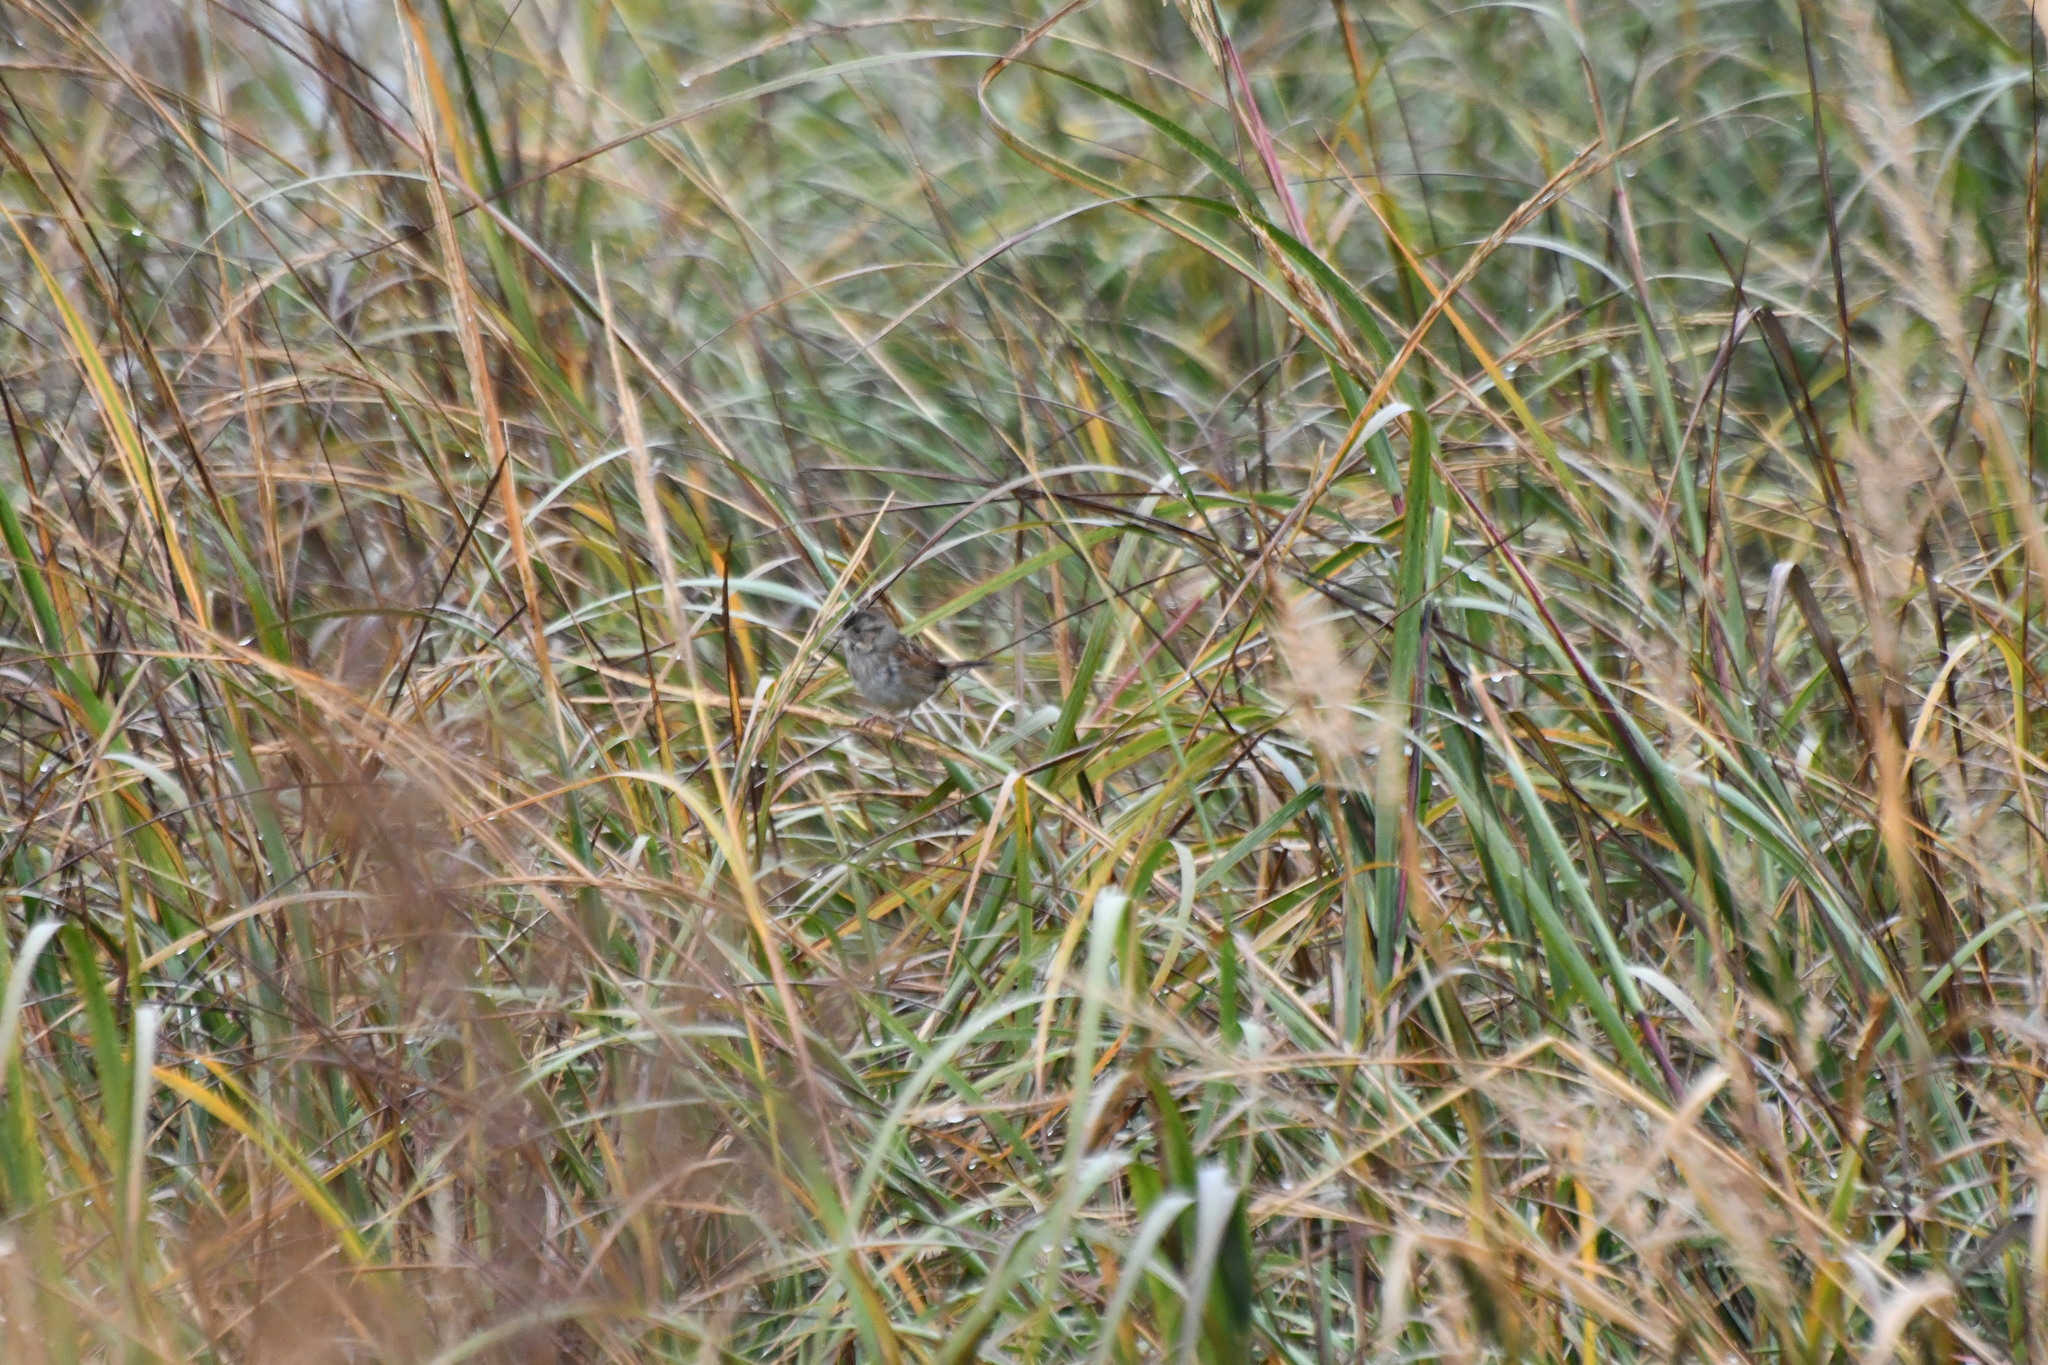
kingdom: Animalia
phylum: Chordata
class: Aves
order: Passeriformes
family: Passerellidae
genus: Melospiza
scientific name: Melospiza georgiana
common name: Swamp sparrow
